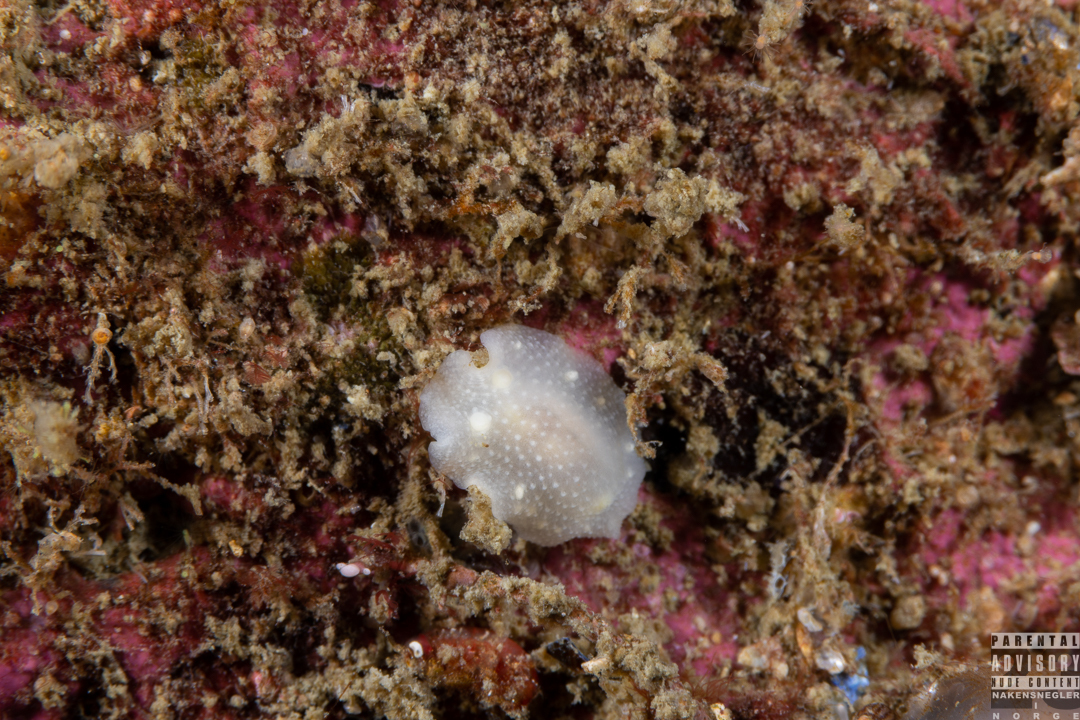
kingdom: Animalia
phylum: Mollusca
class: Gastropoda
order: Nudibranchia
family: Cadlinidae
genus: Cadlina
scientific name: Cadlina laevis
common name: White atlantic cadlina
